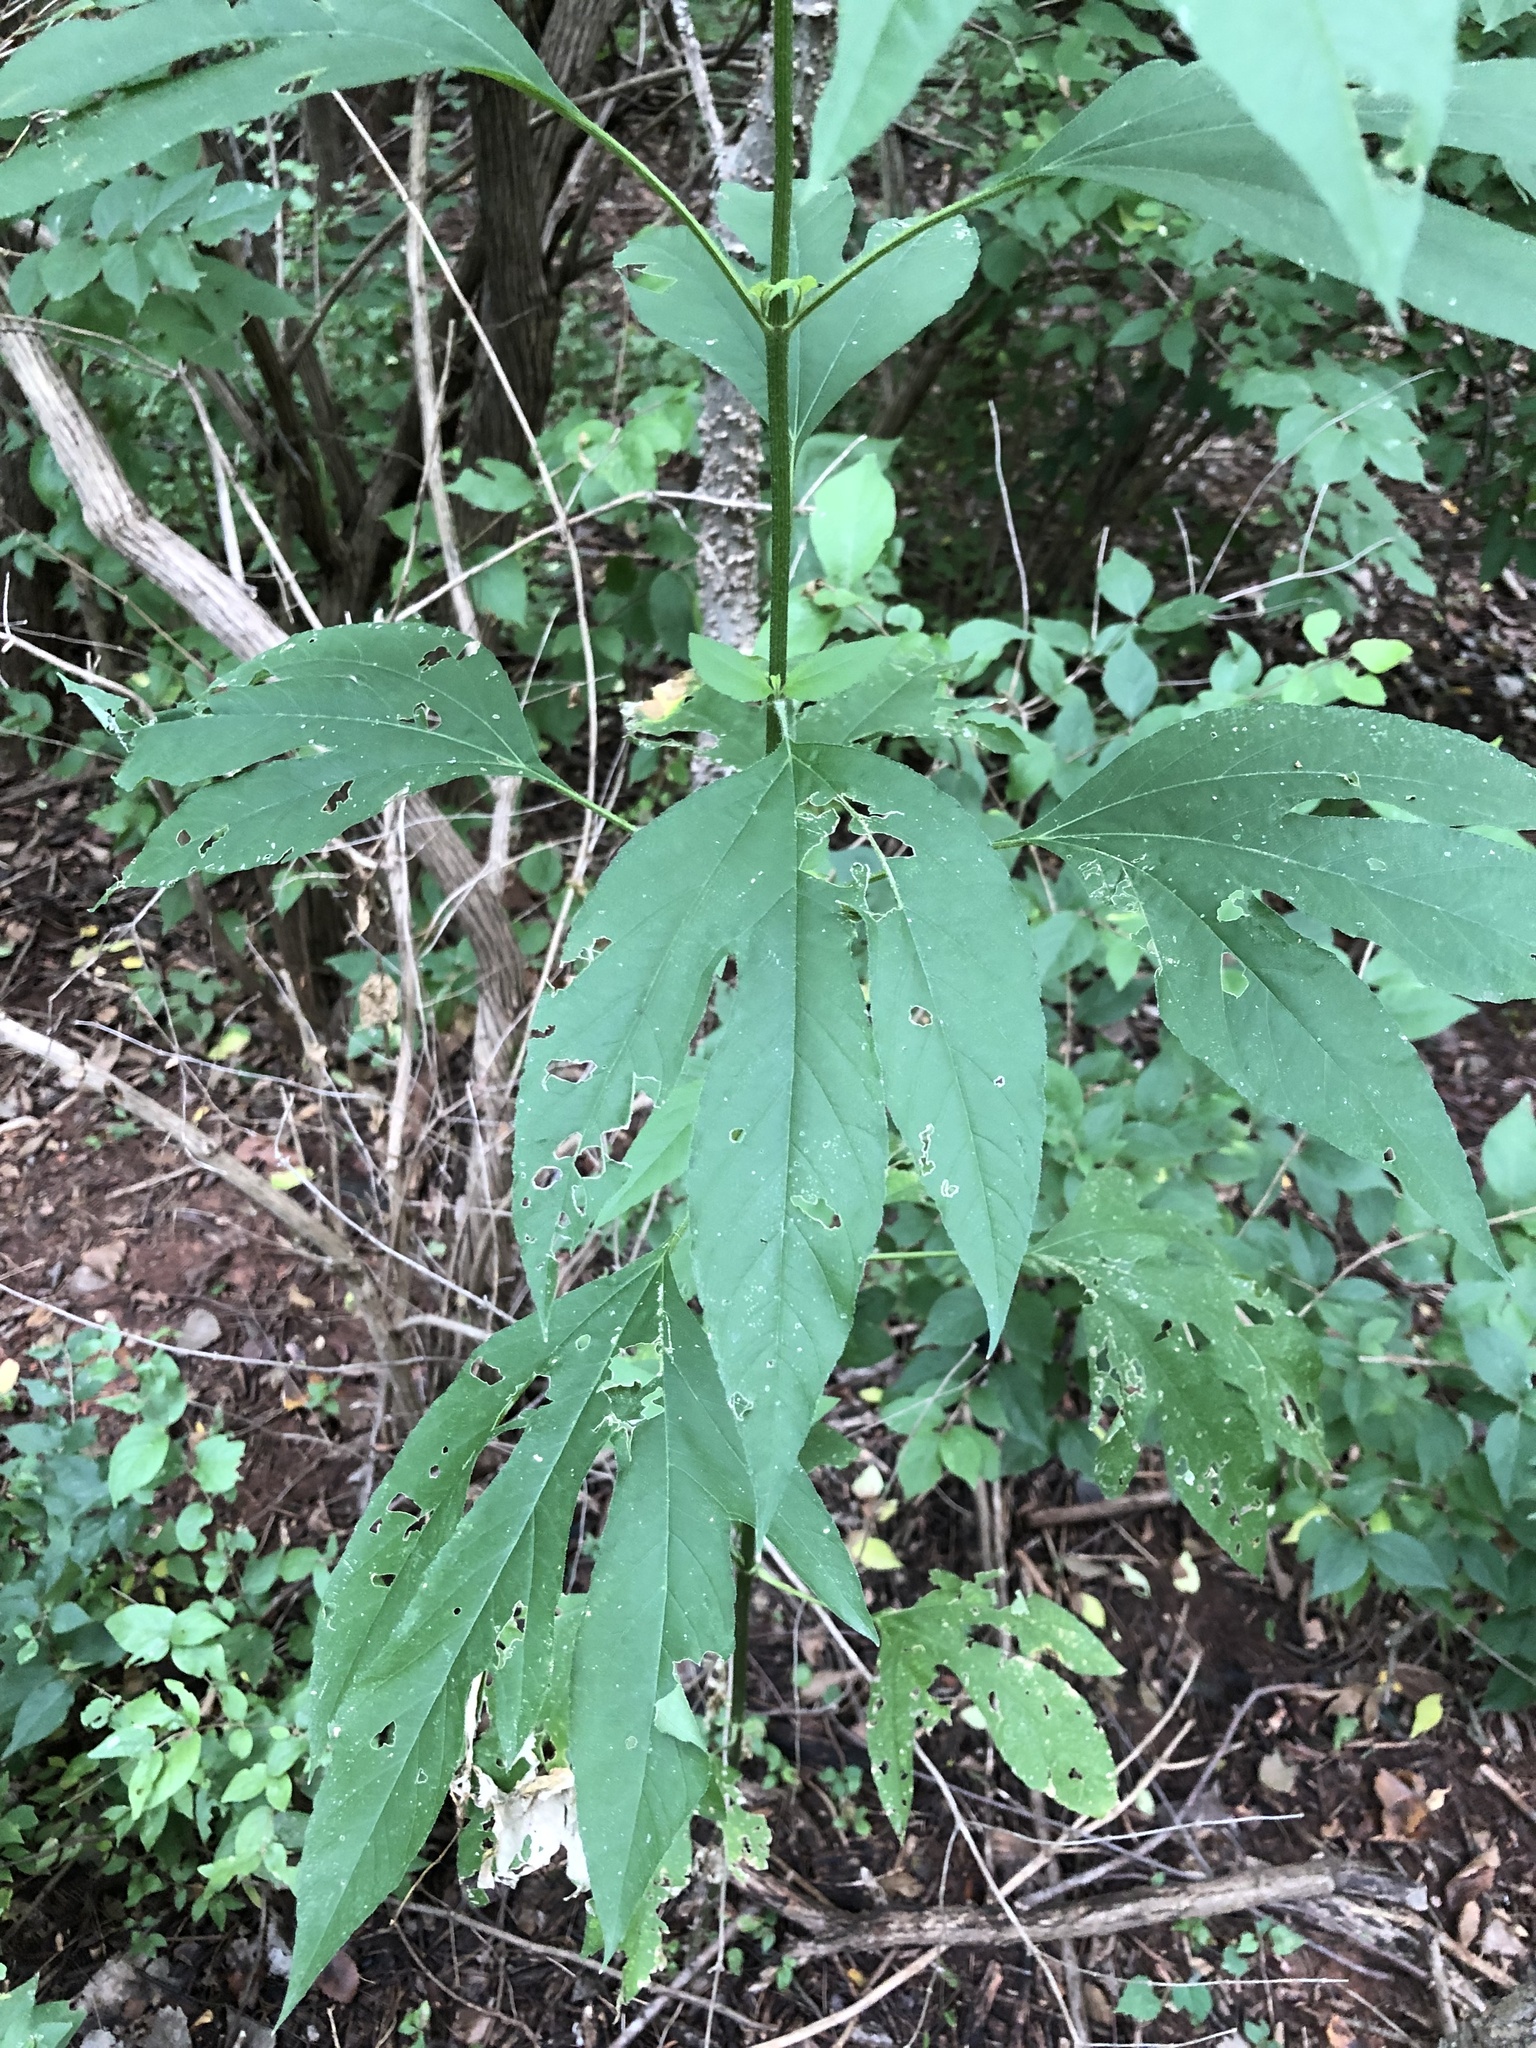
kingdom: Plantae
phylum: Tracheophyta
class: Magnoliopsida
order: Asterales
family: Asteraceae
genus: Ambrosia
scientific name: Ambrosia trifida
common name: Giant ragweed
